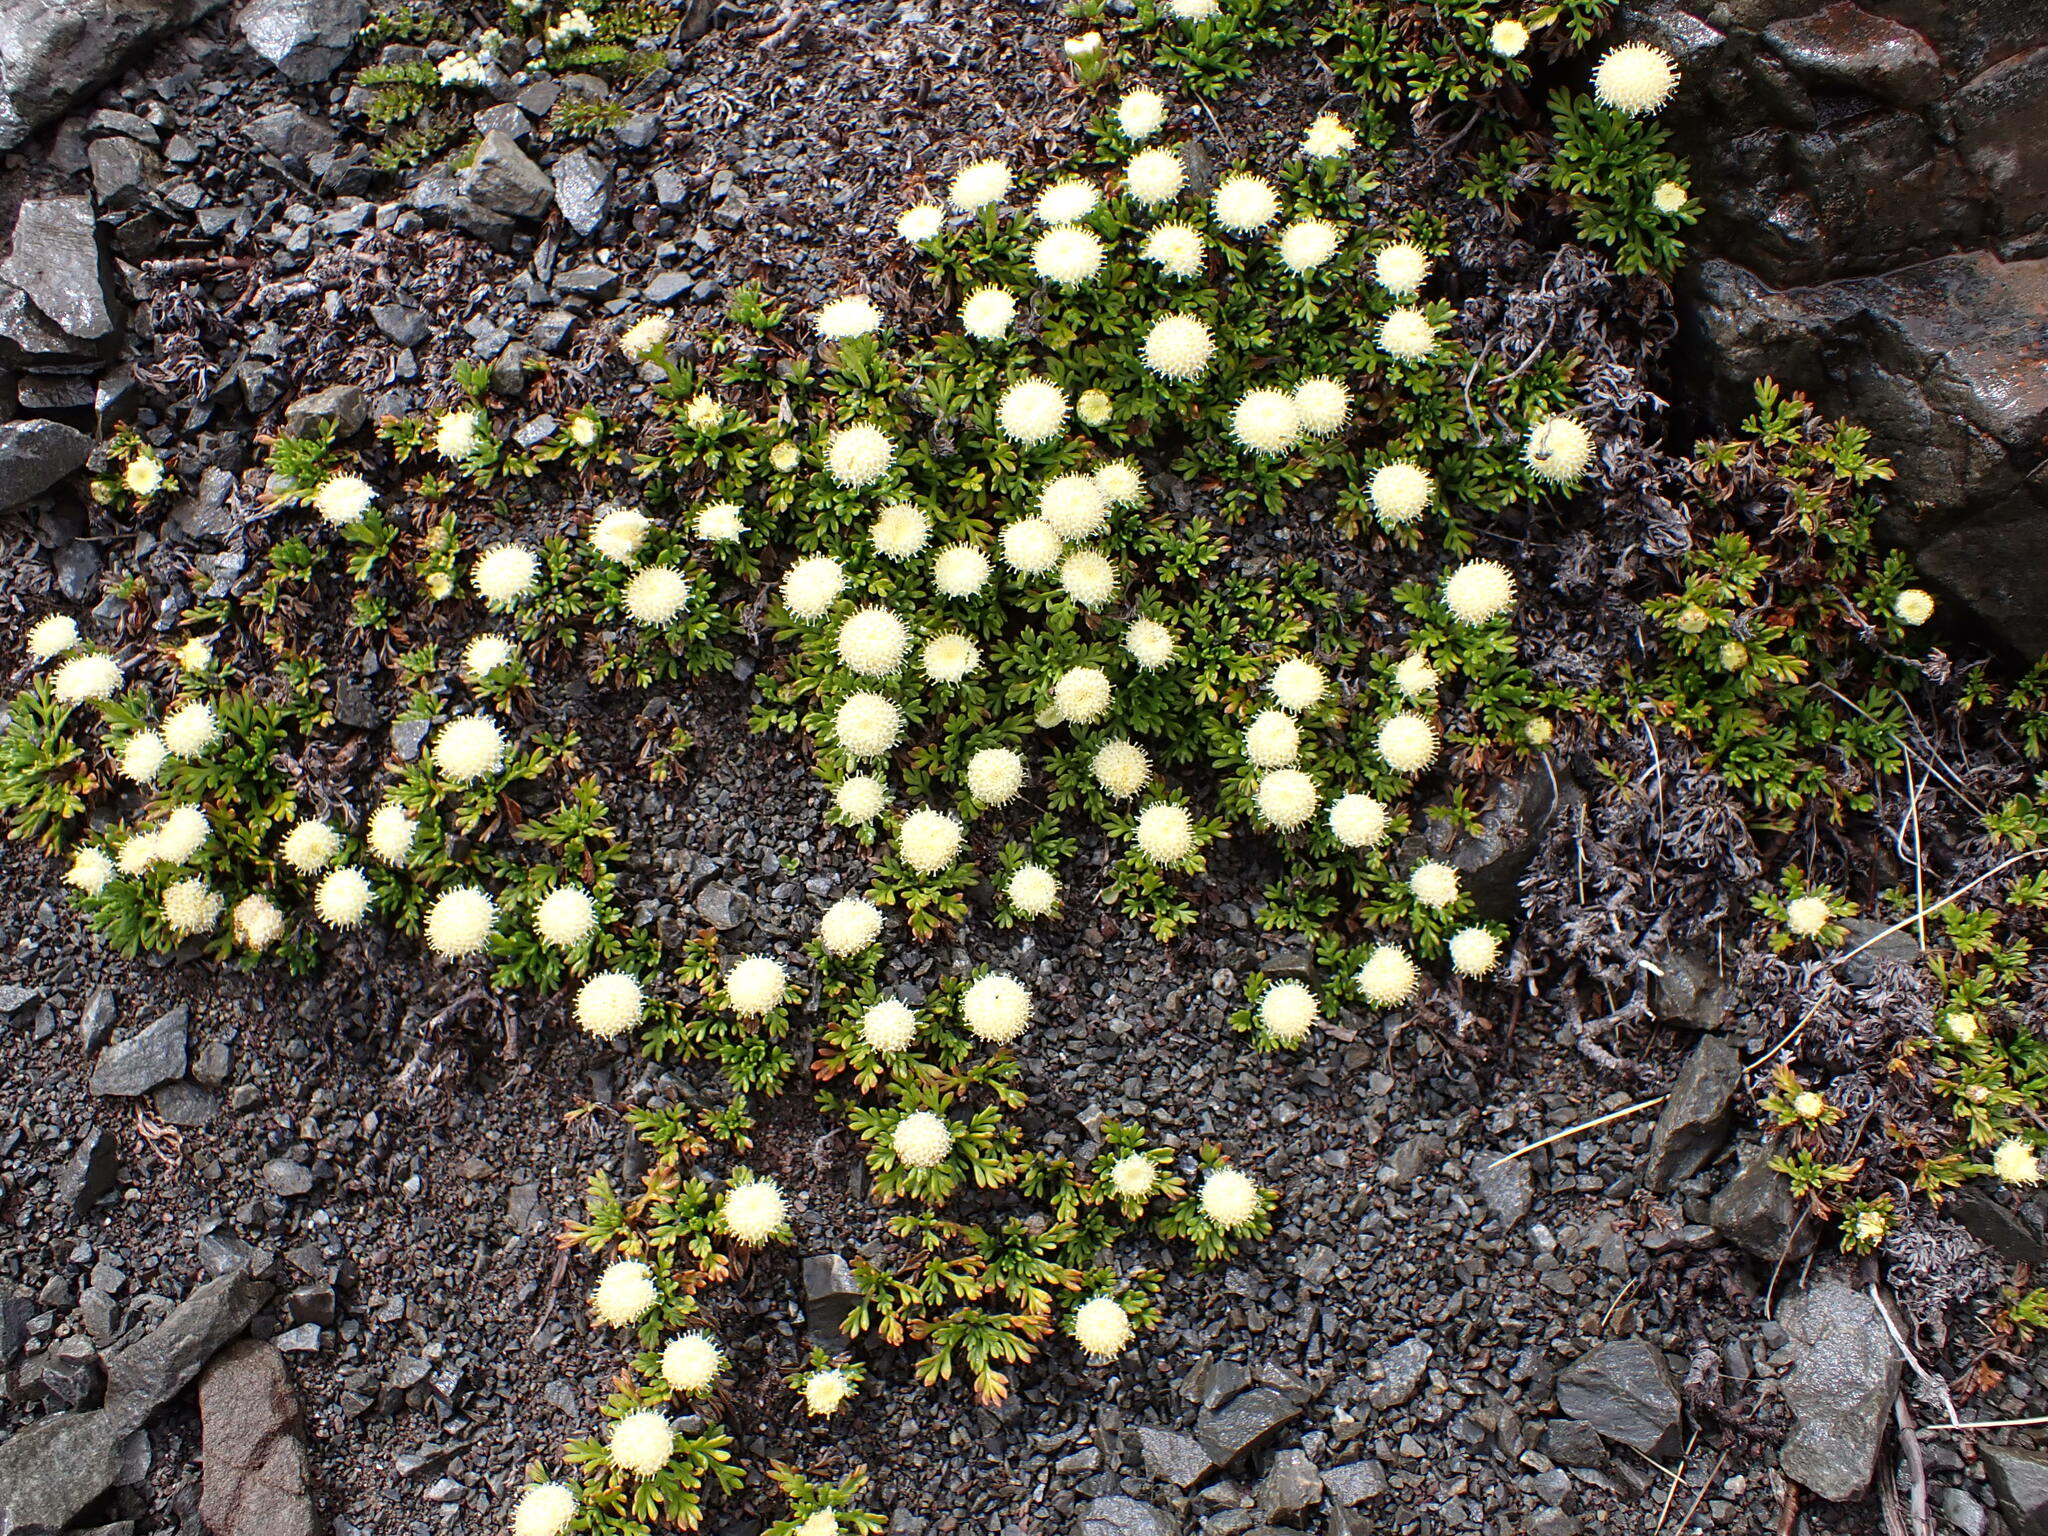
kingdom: Plantae
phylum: Tracheophyta
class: Magnoliopsida
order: Asterales
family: Asteraceae
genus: Leptinella
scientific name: Leptinella pyrethrifolia
